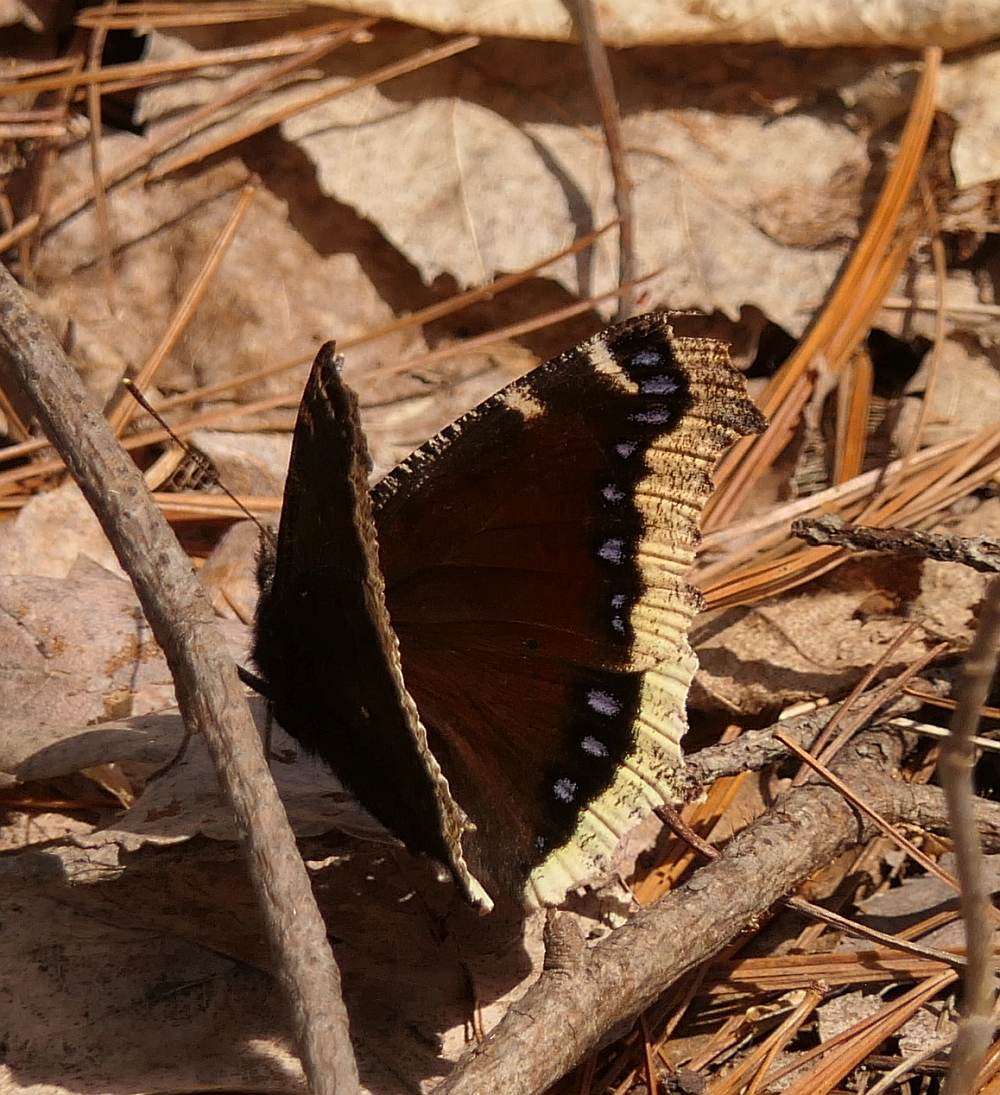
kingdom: Animalia
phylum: Arthropoda
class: Insecta
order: Lepidoptera
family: Nymphalidae
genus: Nymphalis
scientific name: Nymphalis antiopa
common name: Camberwell beauty
